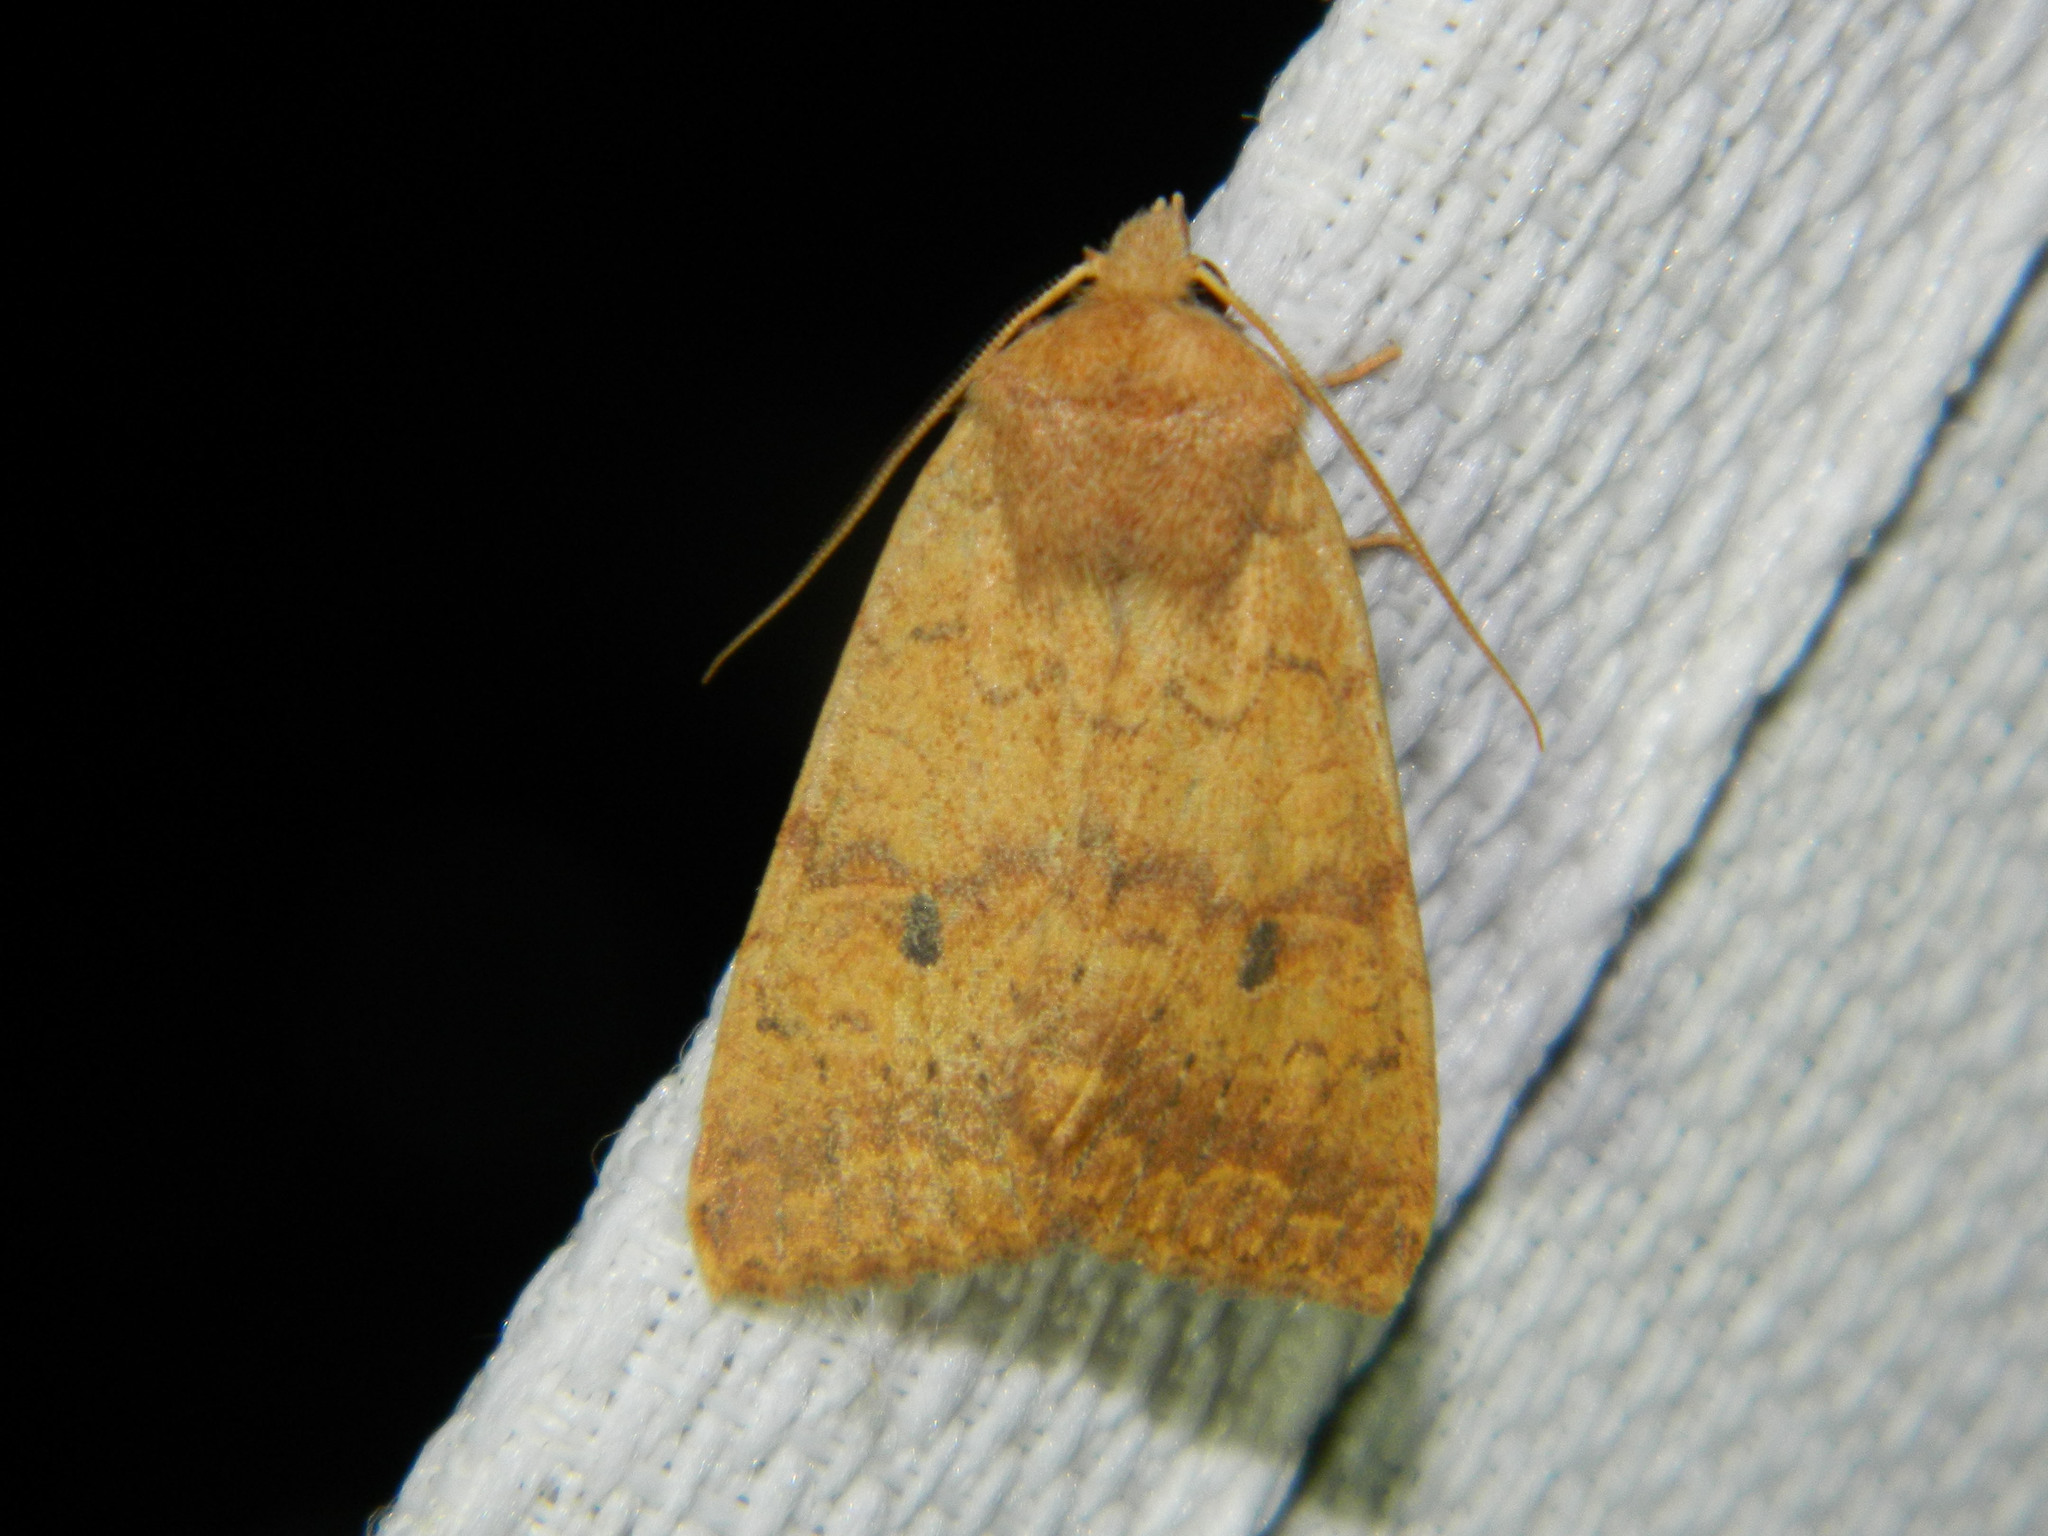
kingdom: Animalia
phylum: Arthropoda
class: Insecta
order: Lepidoptera
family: Noctuidae
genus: Agrochola
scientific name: Agrochola bicolorago
